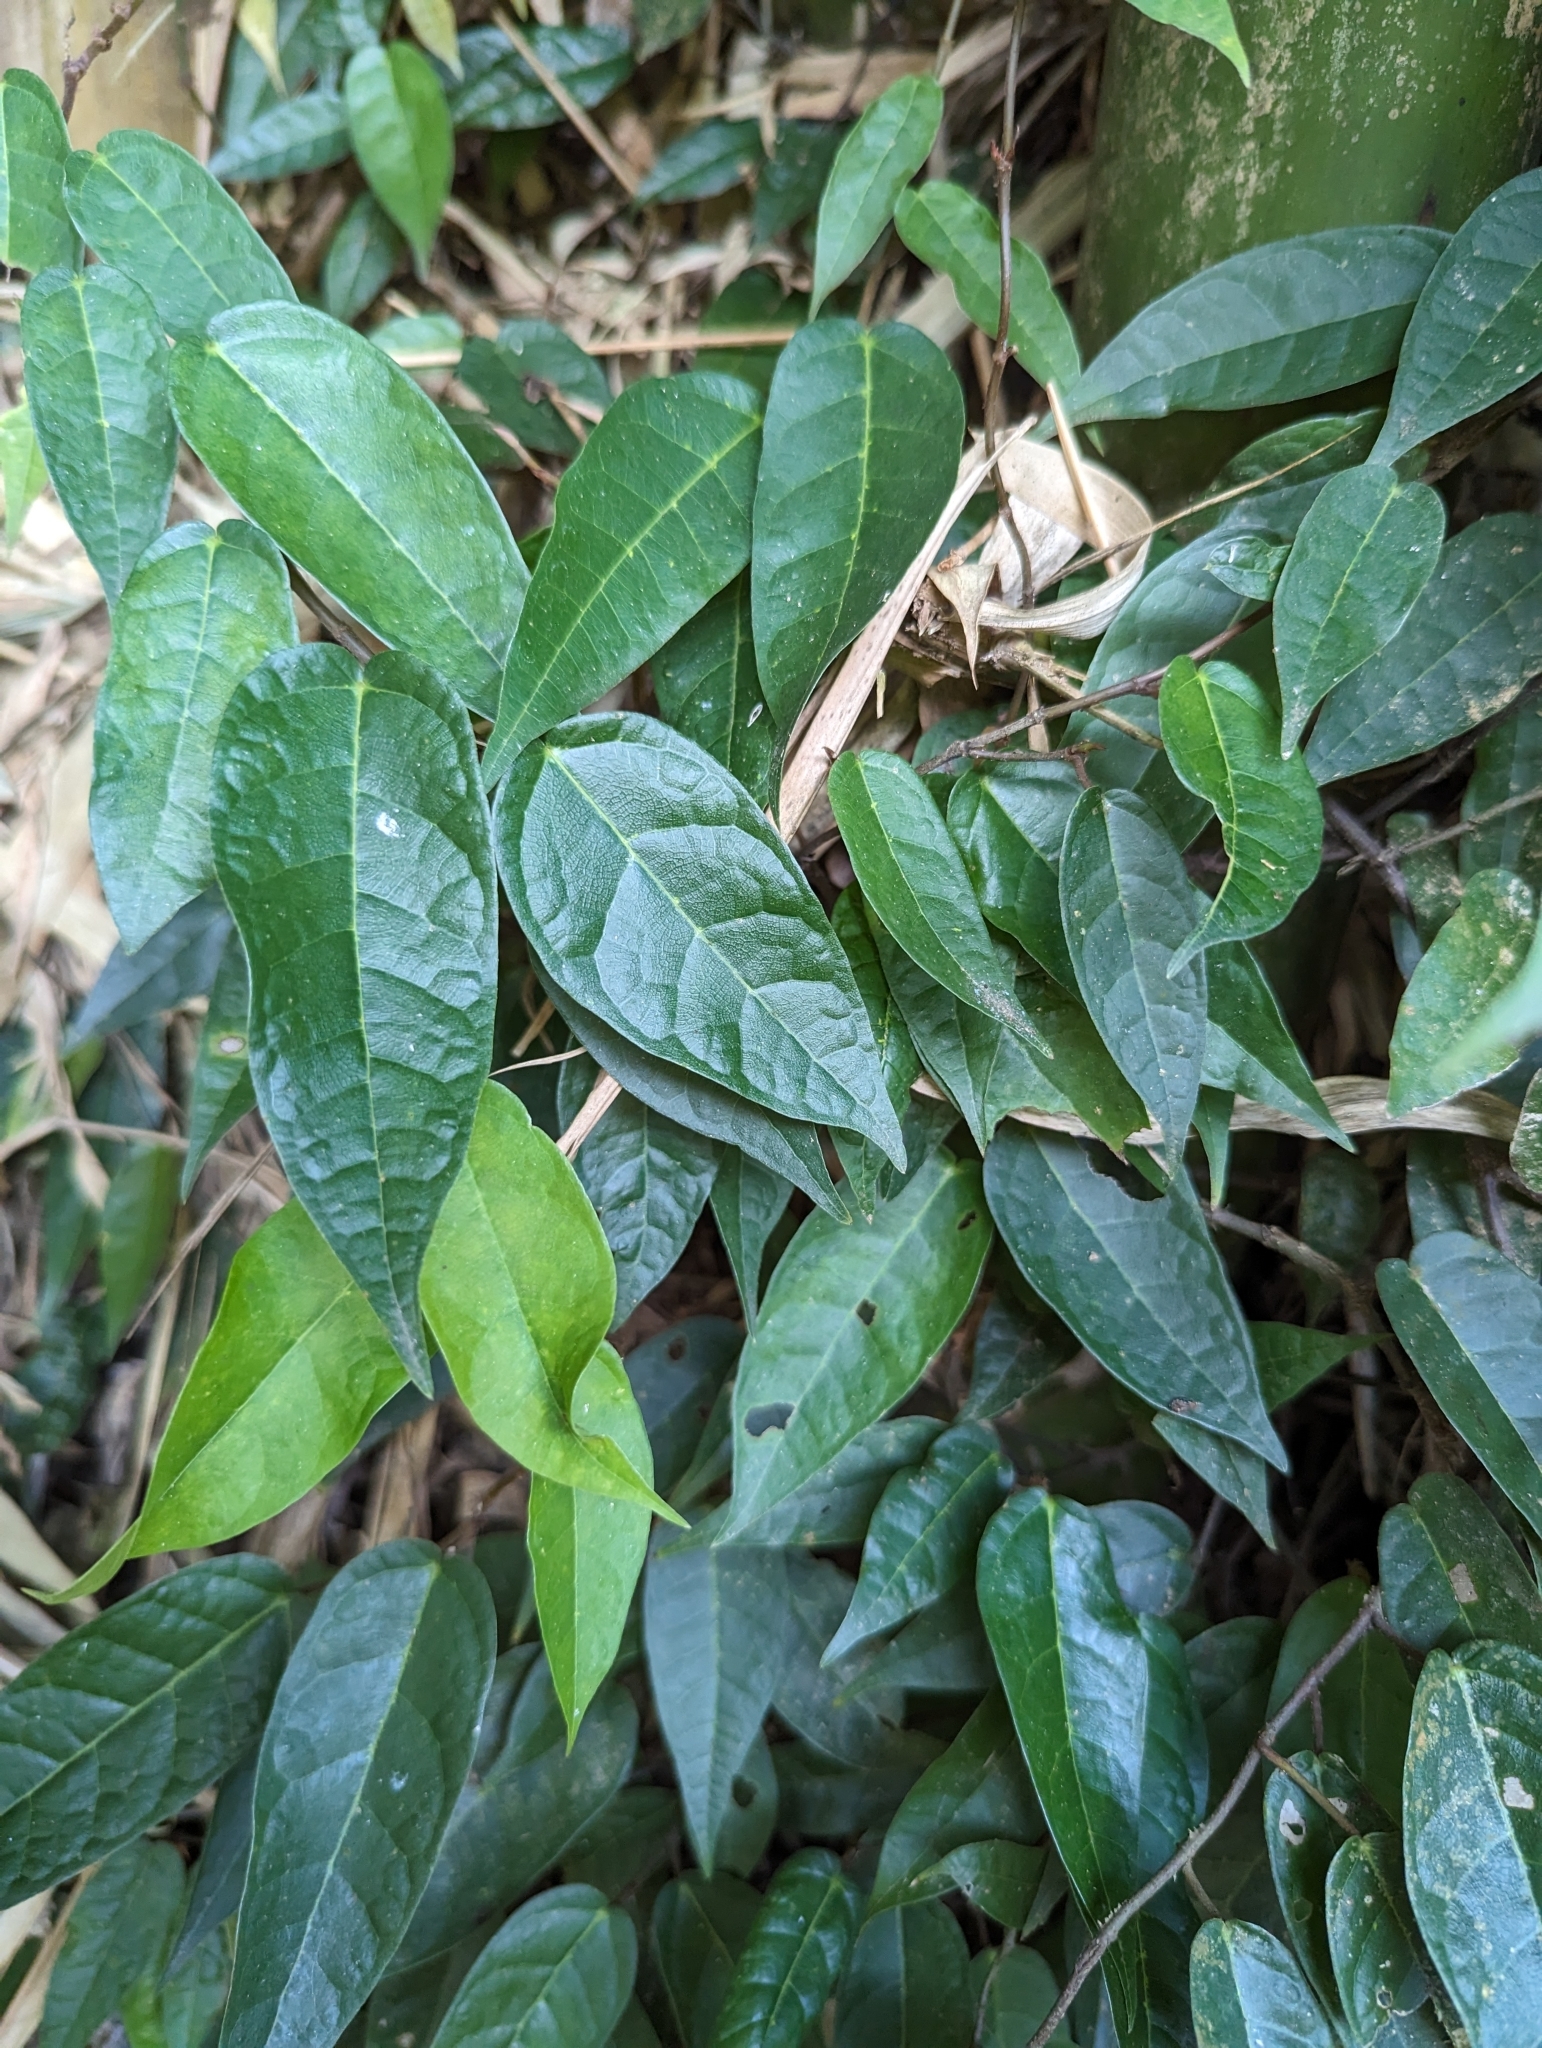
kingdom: Plantae
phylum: Tracheophyta
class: Magnoliopsida
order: Rosales
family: Moraceae
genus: Ficus
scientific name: Ficus sarmentosa
